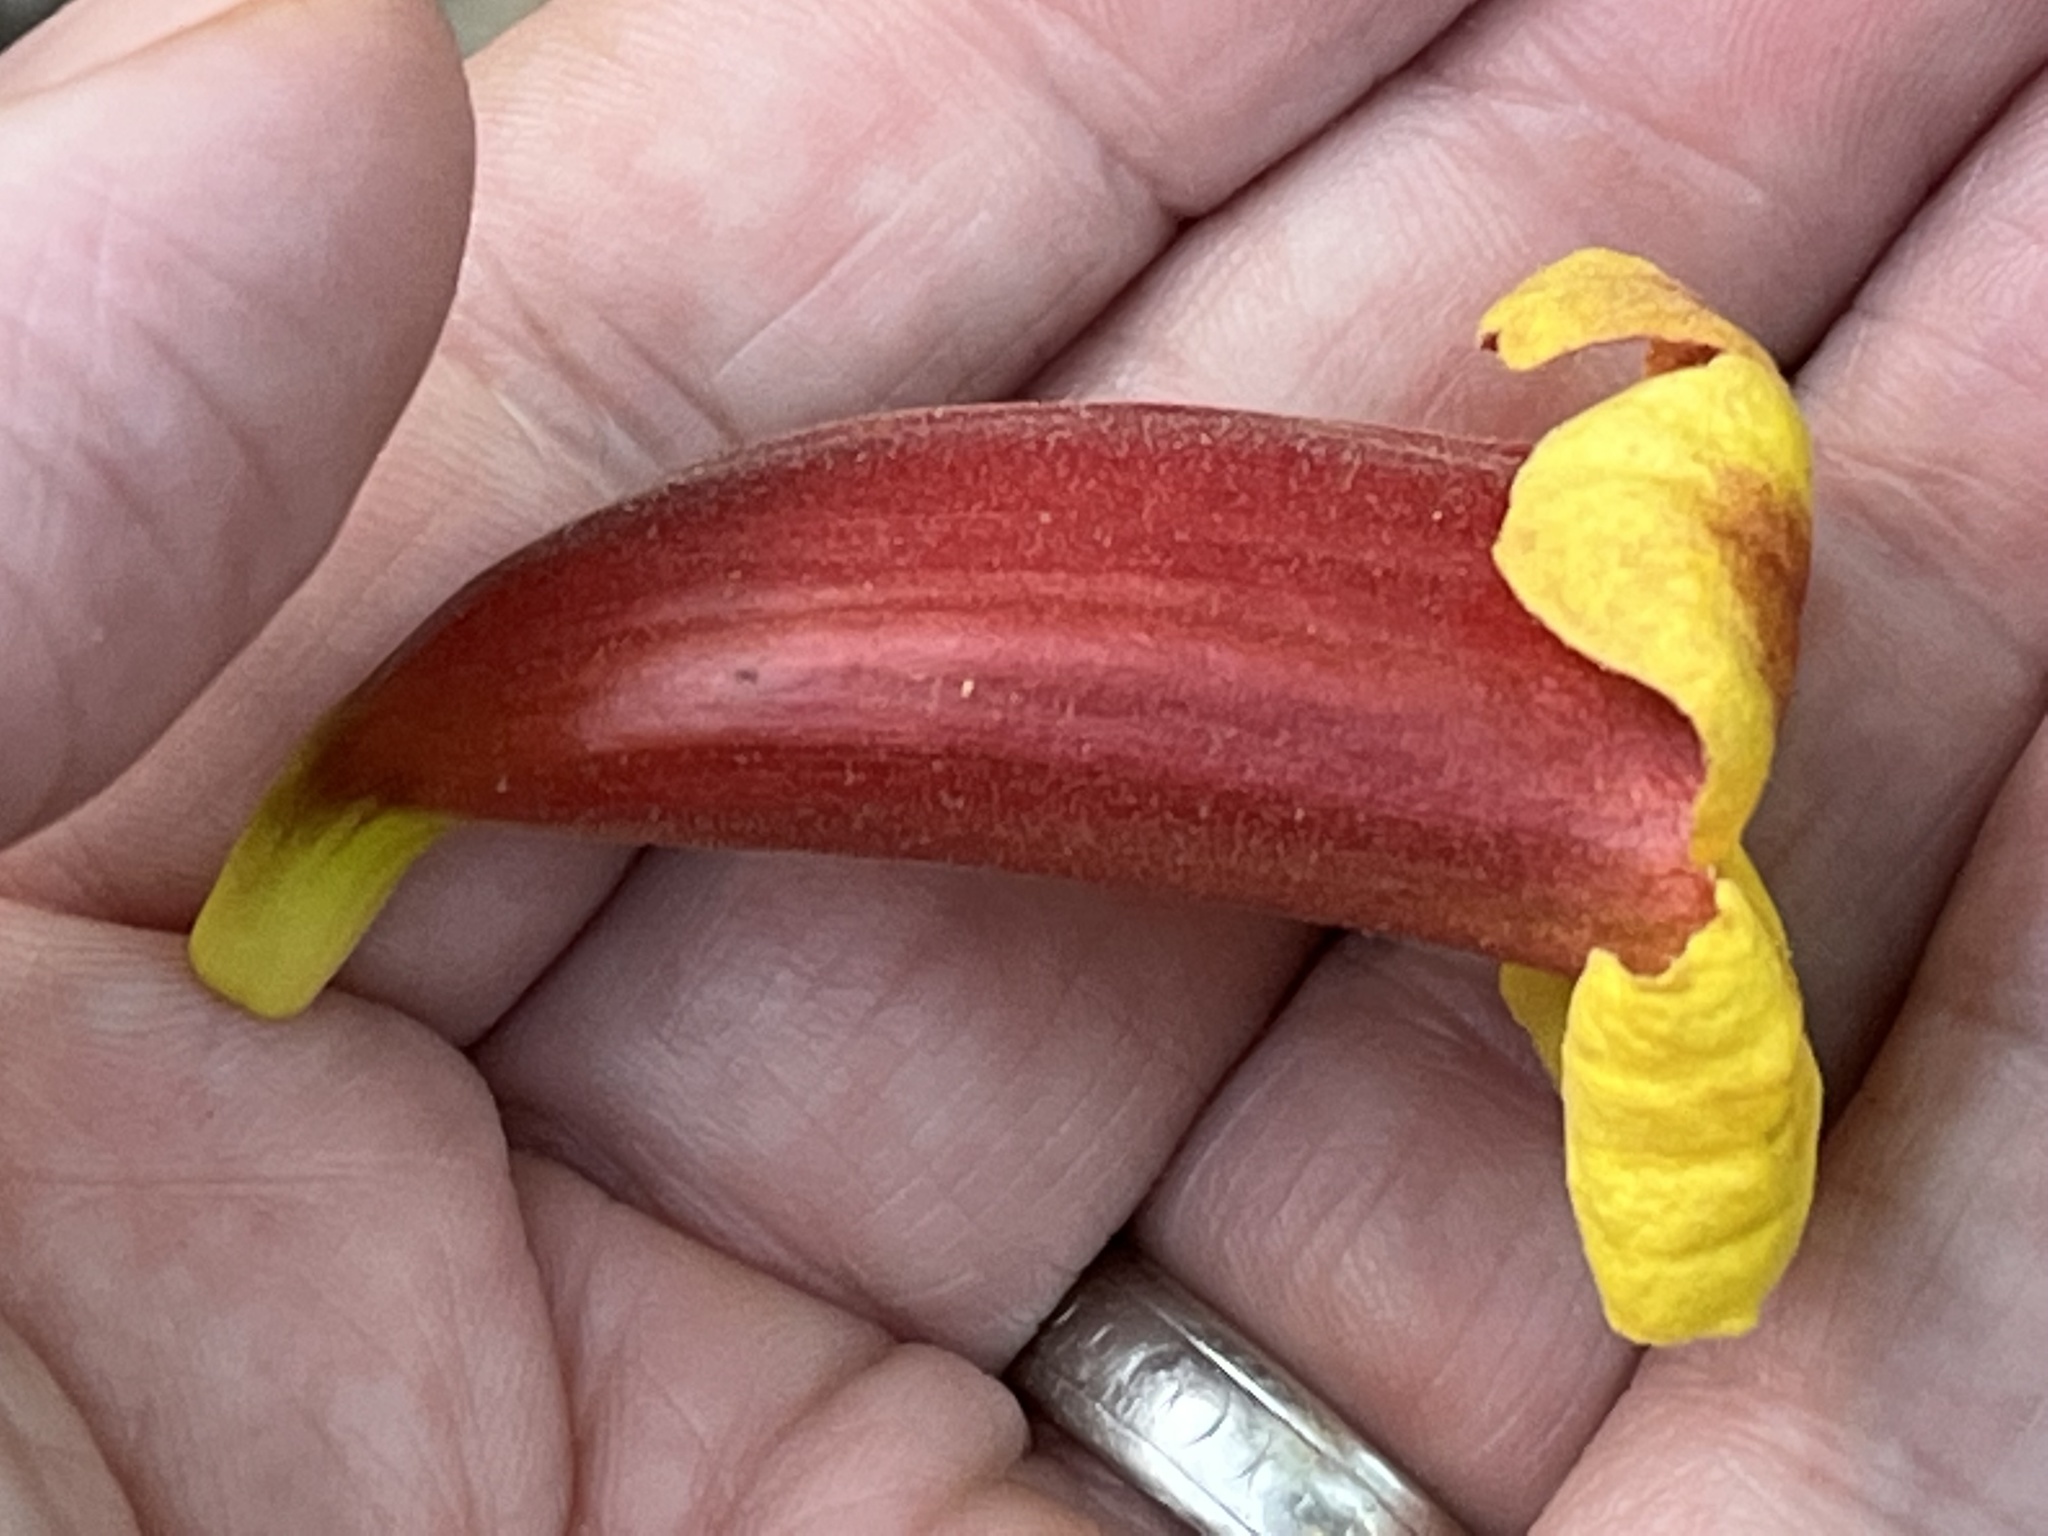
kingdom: Plantae
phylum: Tracheophyta
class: Magnoliopsida
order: Lamiales
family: Bignoniaceae
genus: Bignonia
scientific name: Bignonia capreolata
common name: Crossvine
